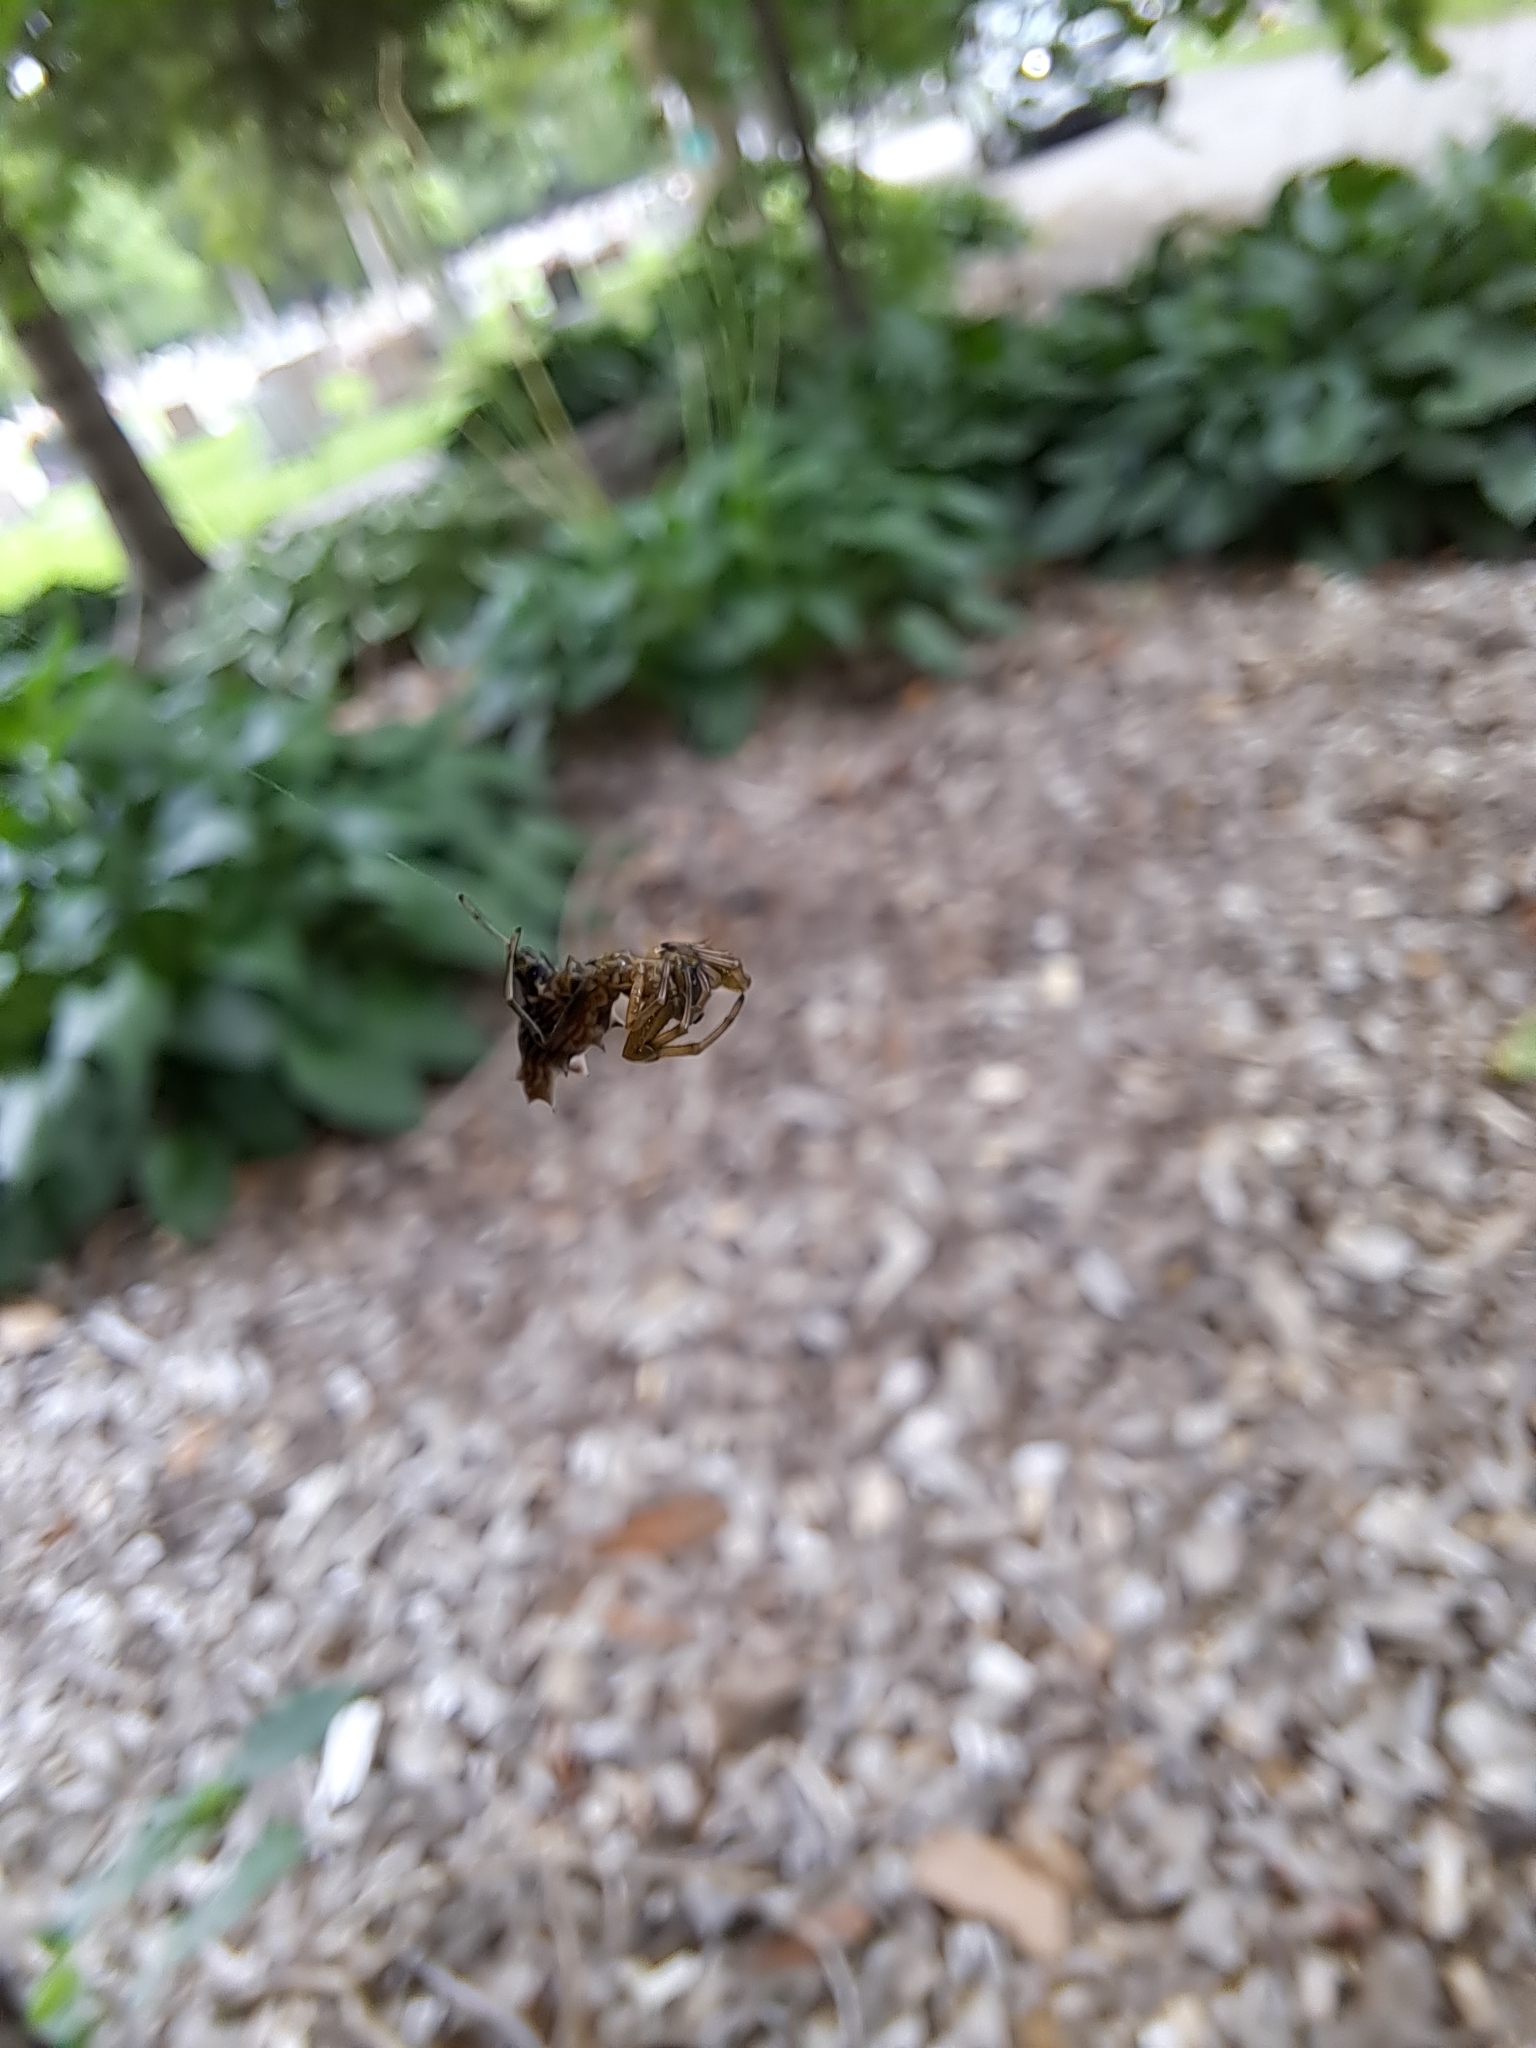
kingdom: Animalia
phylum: Arthropoda
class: Arachnida
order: Araneae
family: Araneidae
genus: Micrathena
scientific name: Micrathena gracilis
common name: Orb weavers
